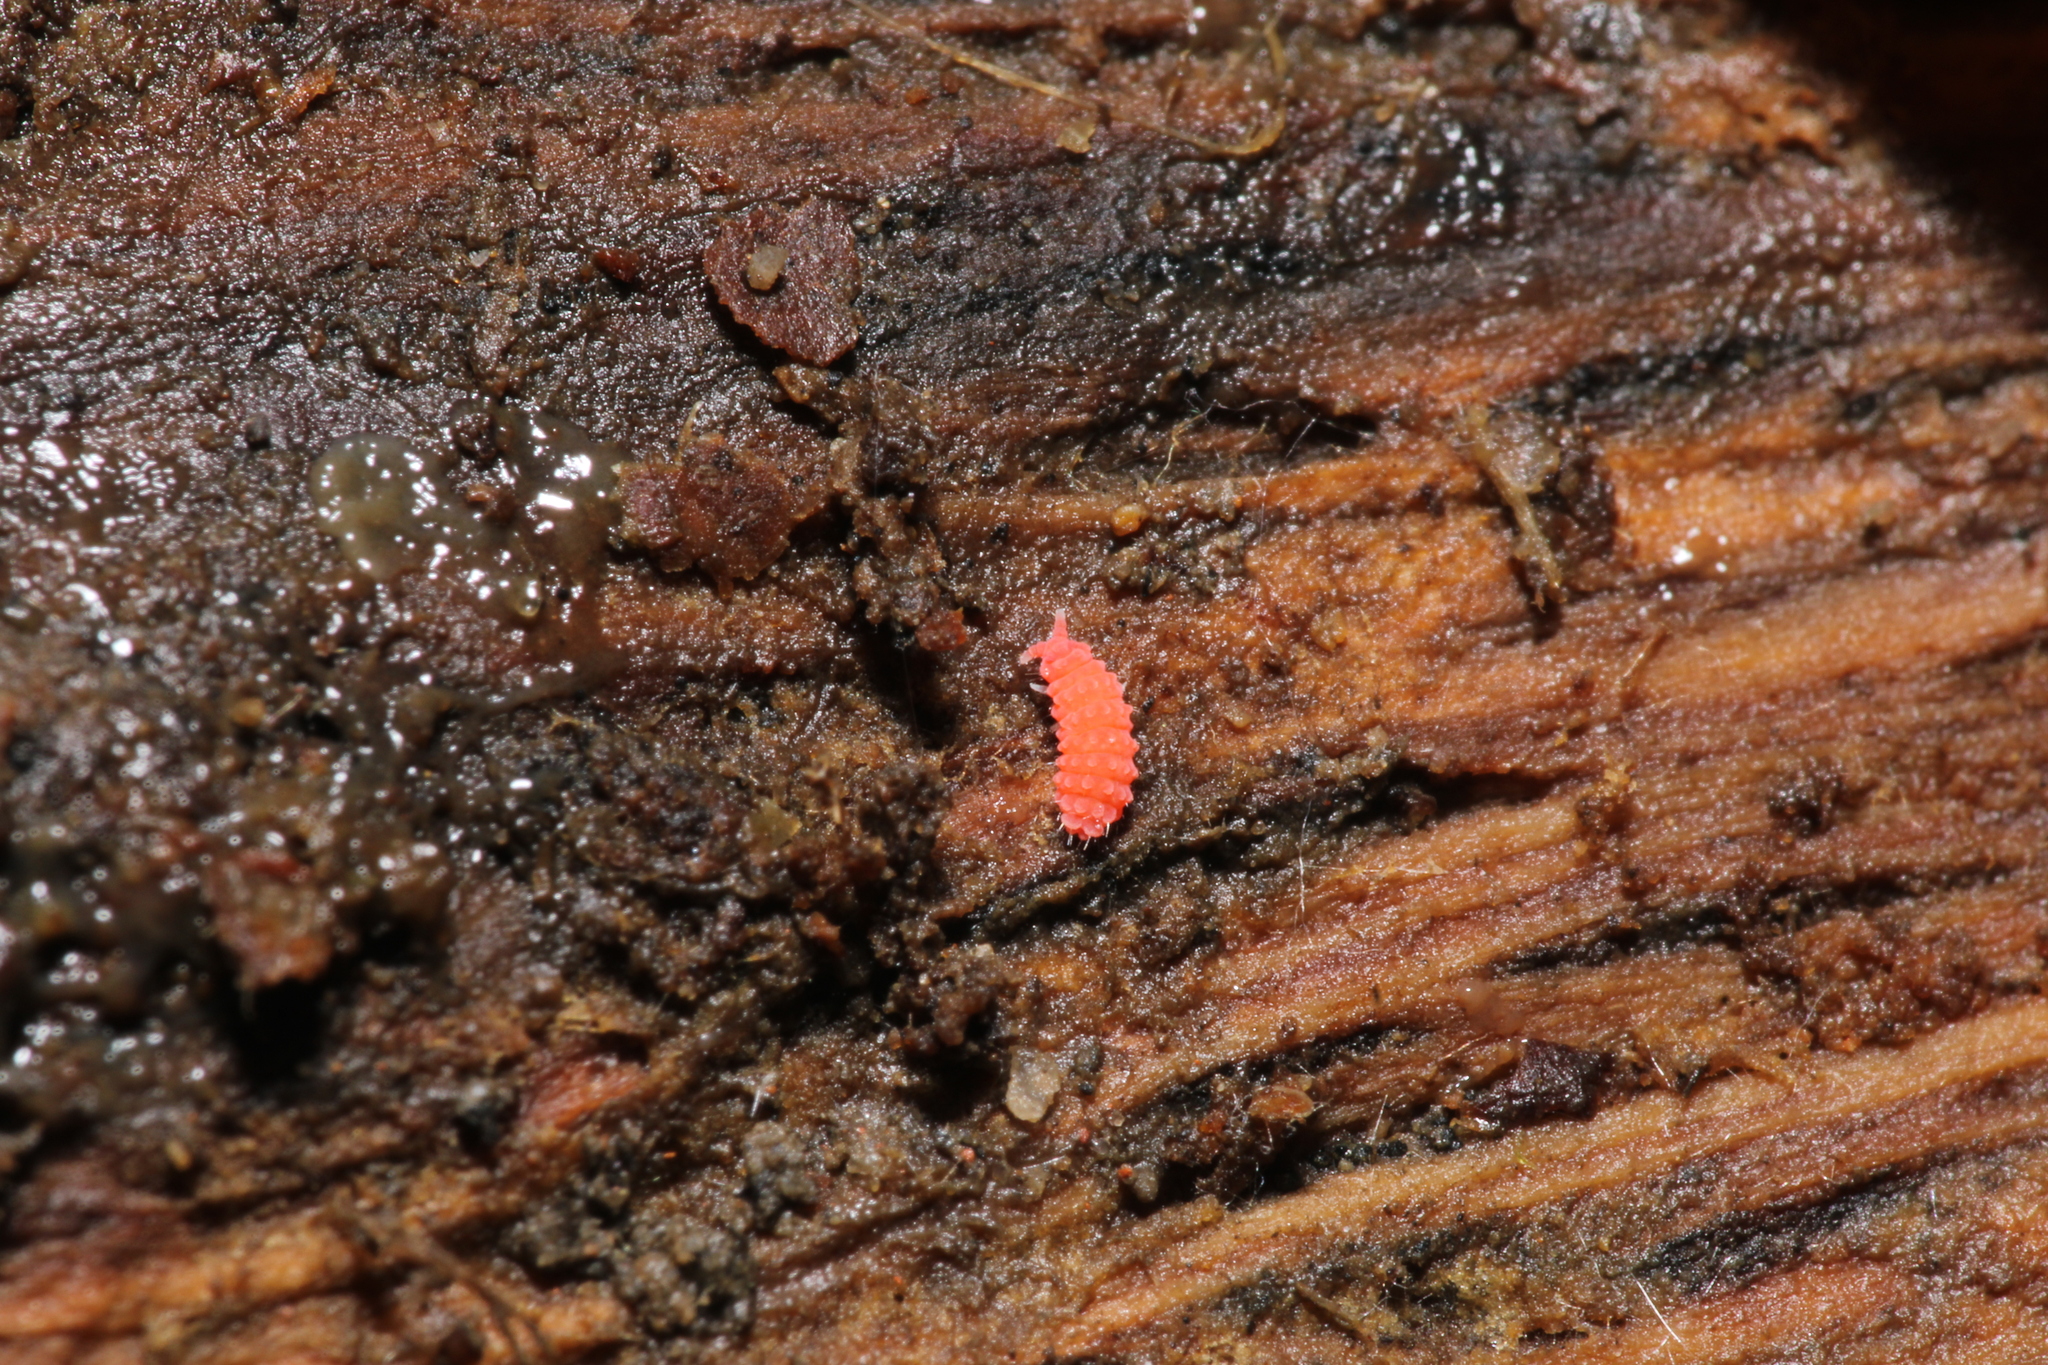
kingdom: Animalia
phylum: Arthropoda
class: Collembola
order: Poduromorpha
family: Neanuridae
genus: Bilobella
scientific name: Bilobella braunerae
